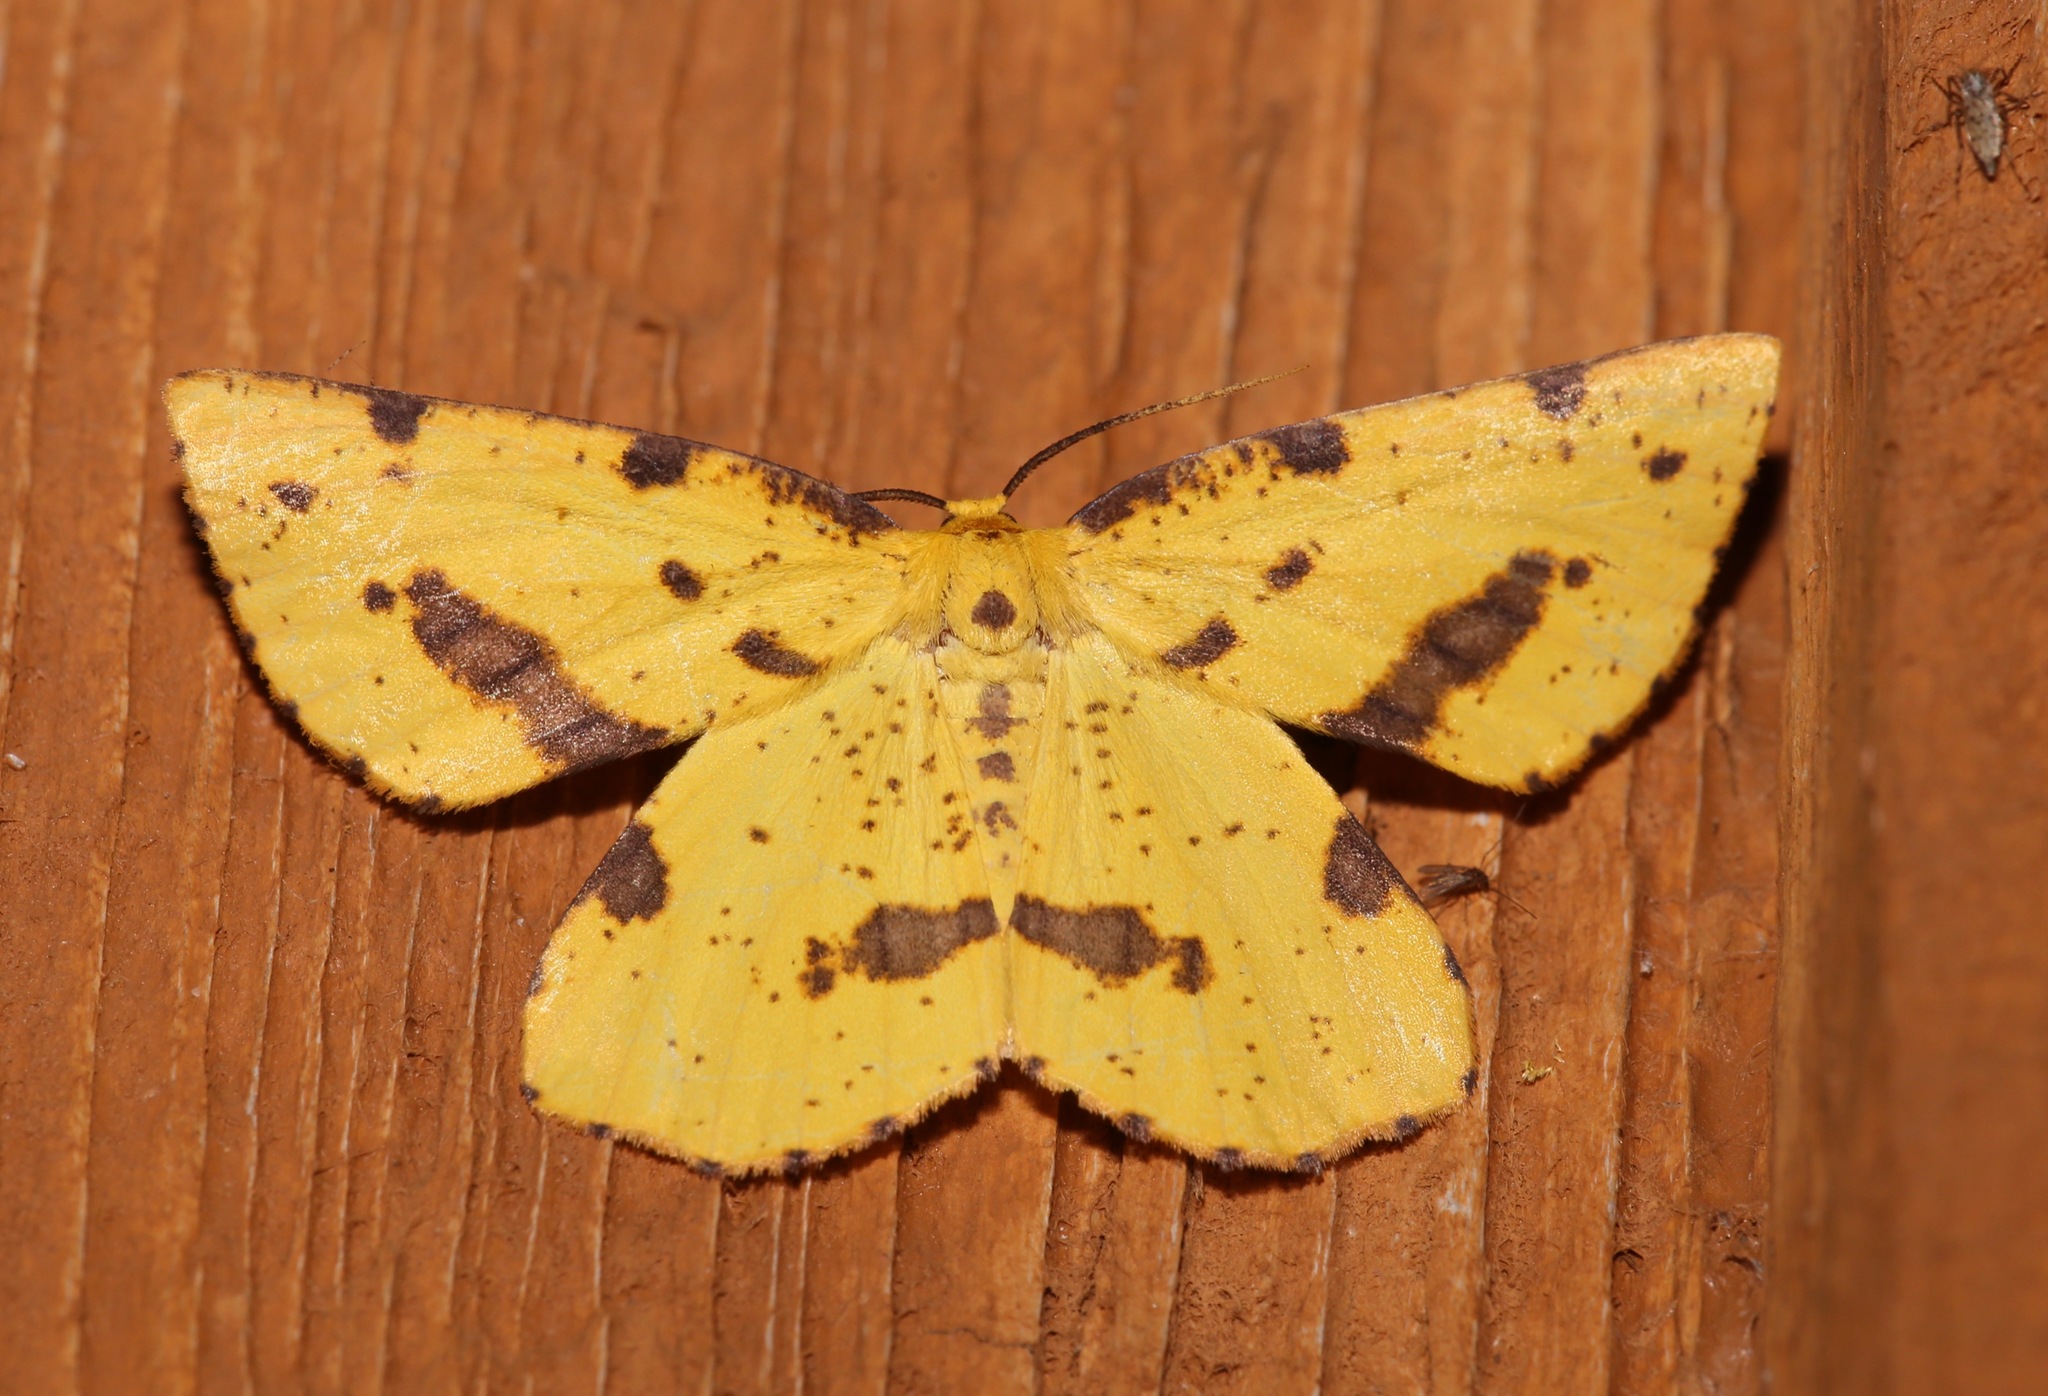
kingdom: Animalia
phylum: Arthropoda
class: Insecta
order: Lepidoptera
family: Geometridae
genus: Xanthotype
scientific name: Xanthotype
